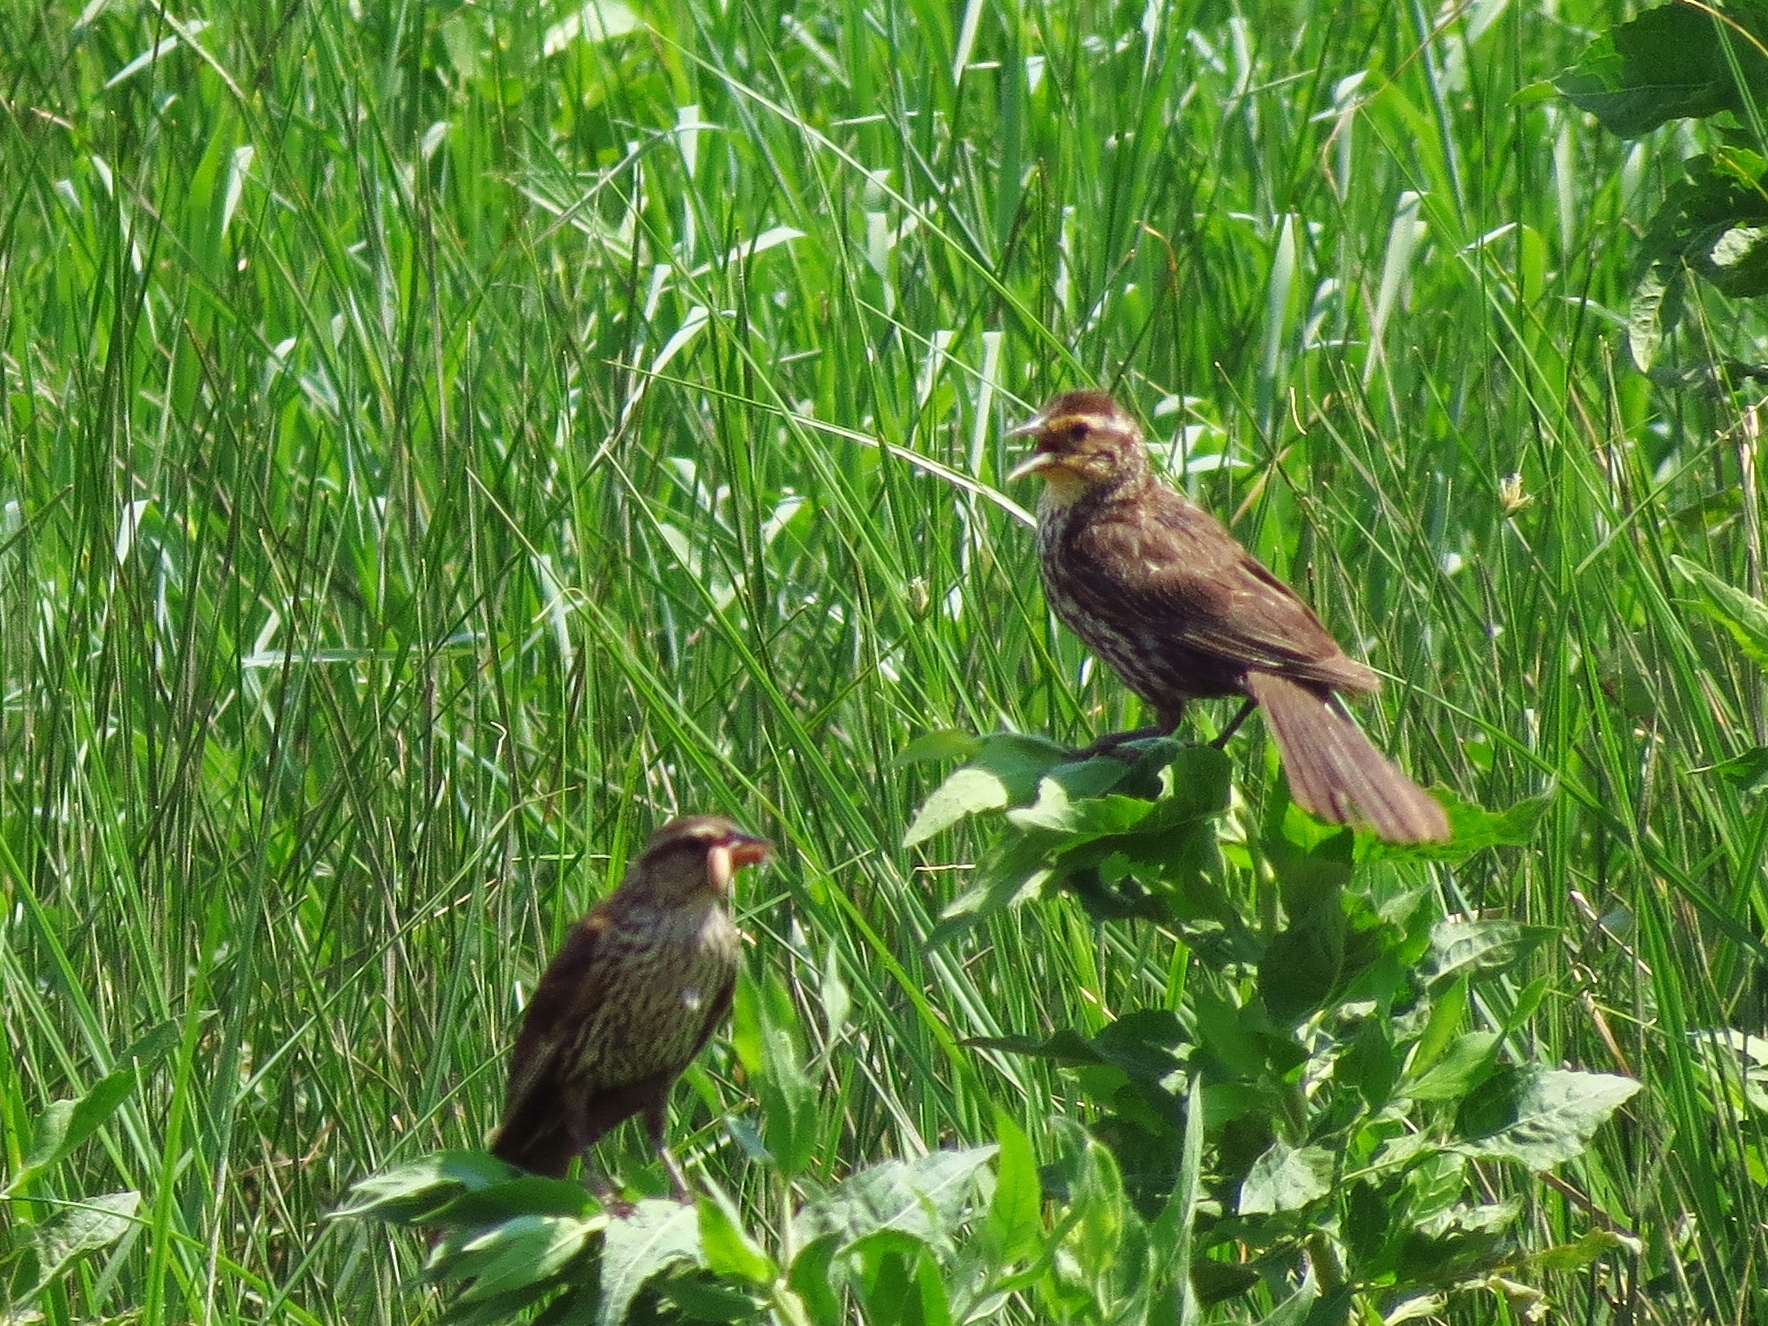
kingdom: Animalia
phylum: Chordata
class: Aves
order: Passeriformes
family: Icteridae
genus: Agelaius
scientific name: Agelaius phoeniceus
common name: Red-winged blackbird
